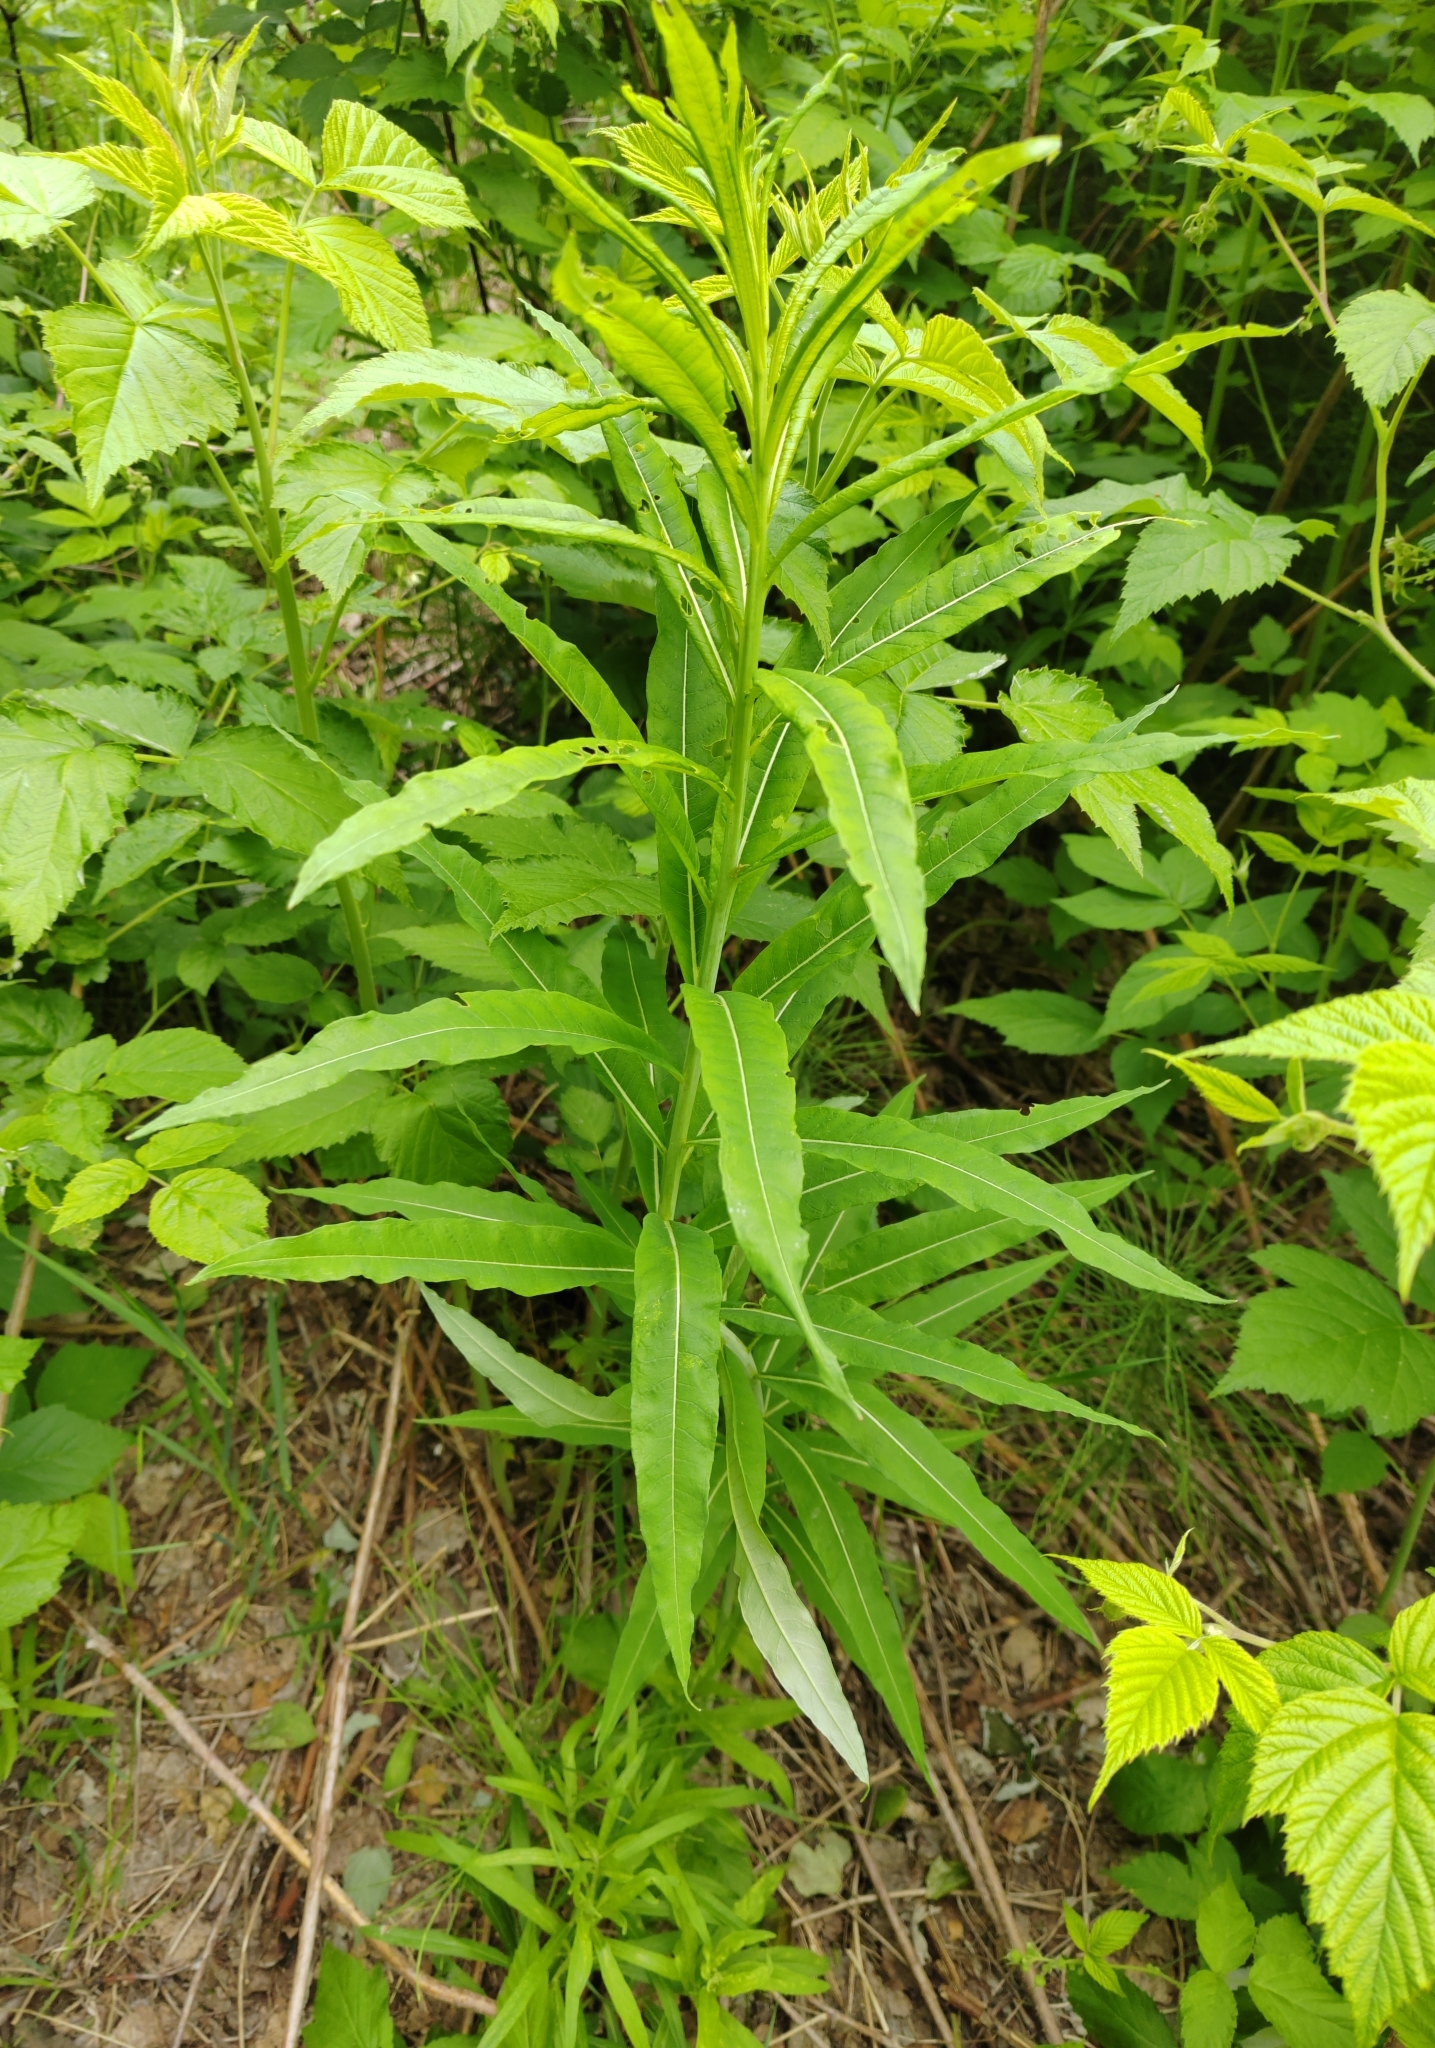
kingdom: Plantae
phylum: Tracheophyta
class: Magnoliopsida
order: Myrtales
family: Onagraceae
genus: Chamaenerion
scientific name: Chamaenerion angustifolium
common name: Fireweed
